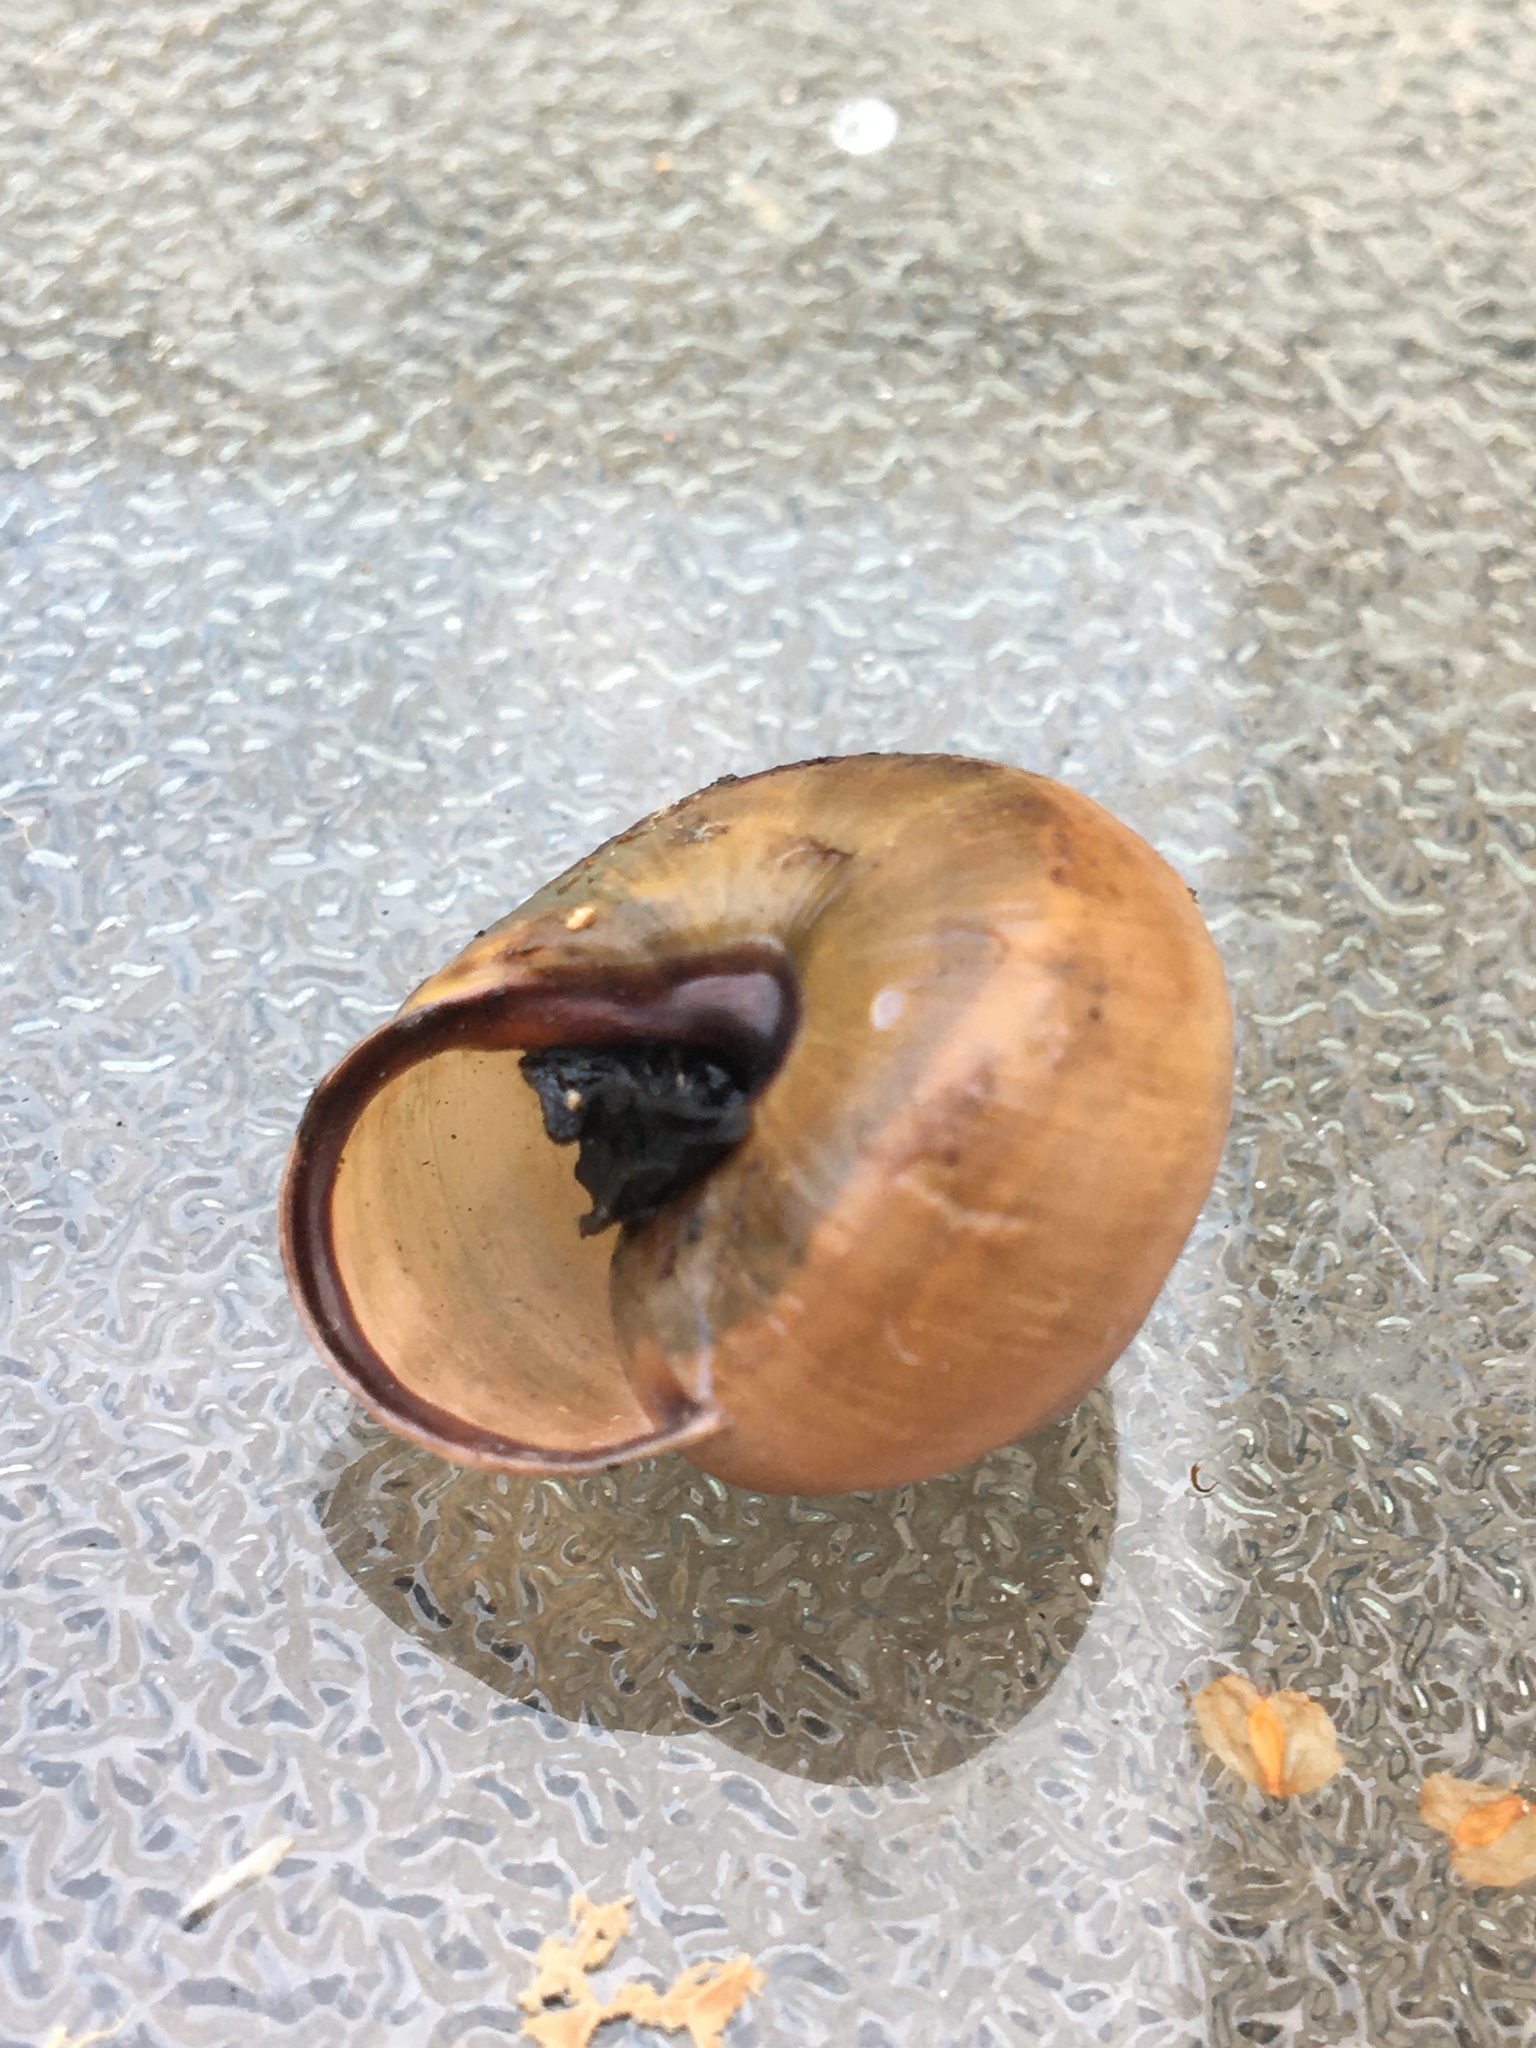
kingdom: Animalia
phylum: Mollusca
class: Gastropoda
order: Stylommatophora
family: Helicidae
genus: Cepaea
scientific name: Cepaea nemoralis
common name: Grovesnail
